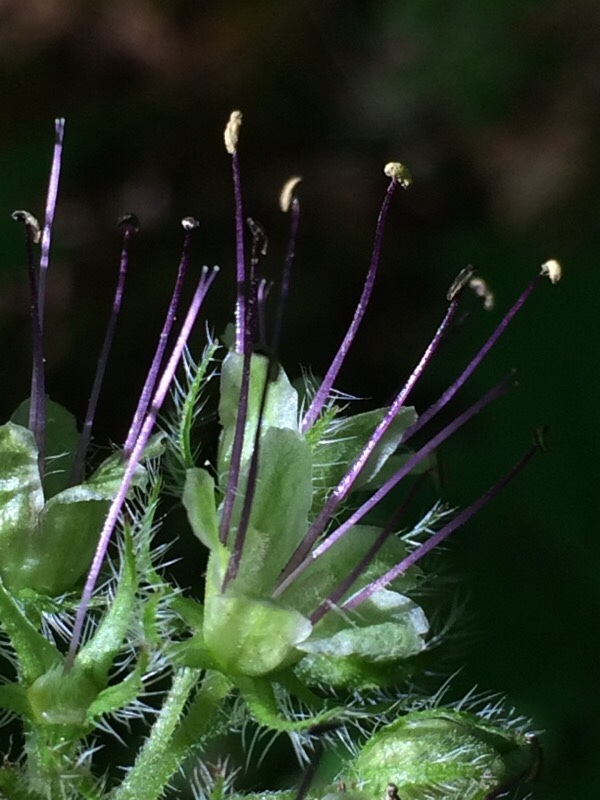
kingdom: Plantae
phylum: Tracheophyta
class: Magnoliopsida
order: Boraginales
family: Hydrophyllaceae
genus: Hydrophyllum
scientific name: Hydrophyllum tenuipes
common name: Pacific waterleaf
